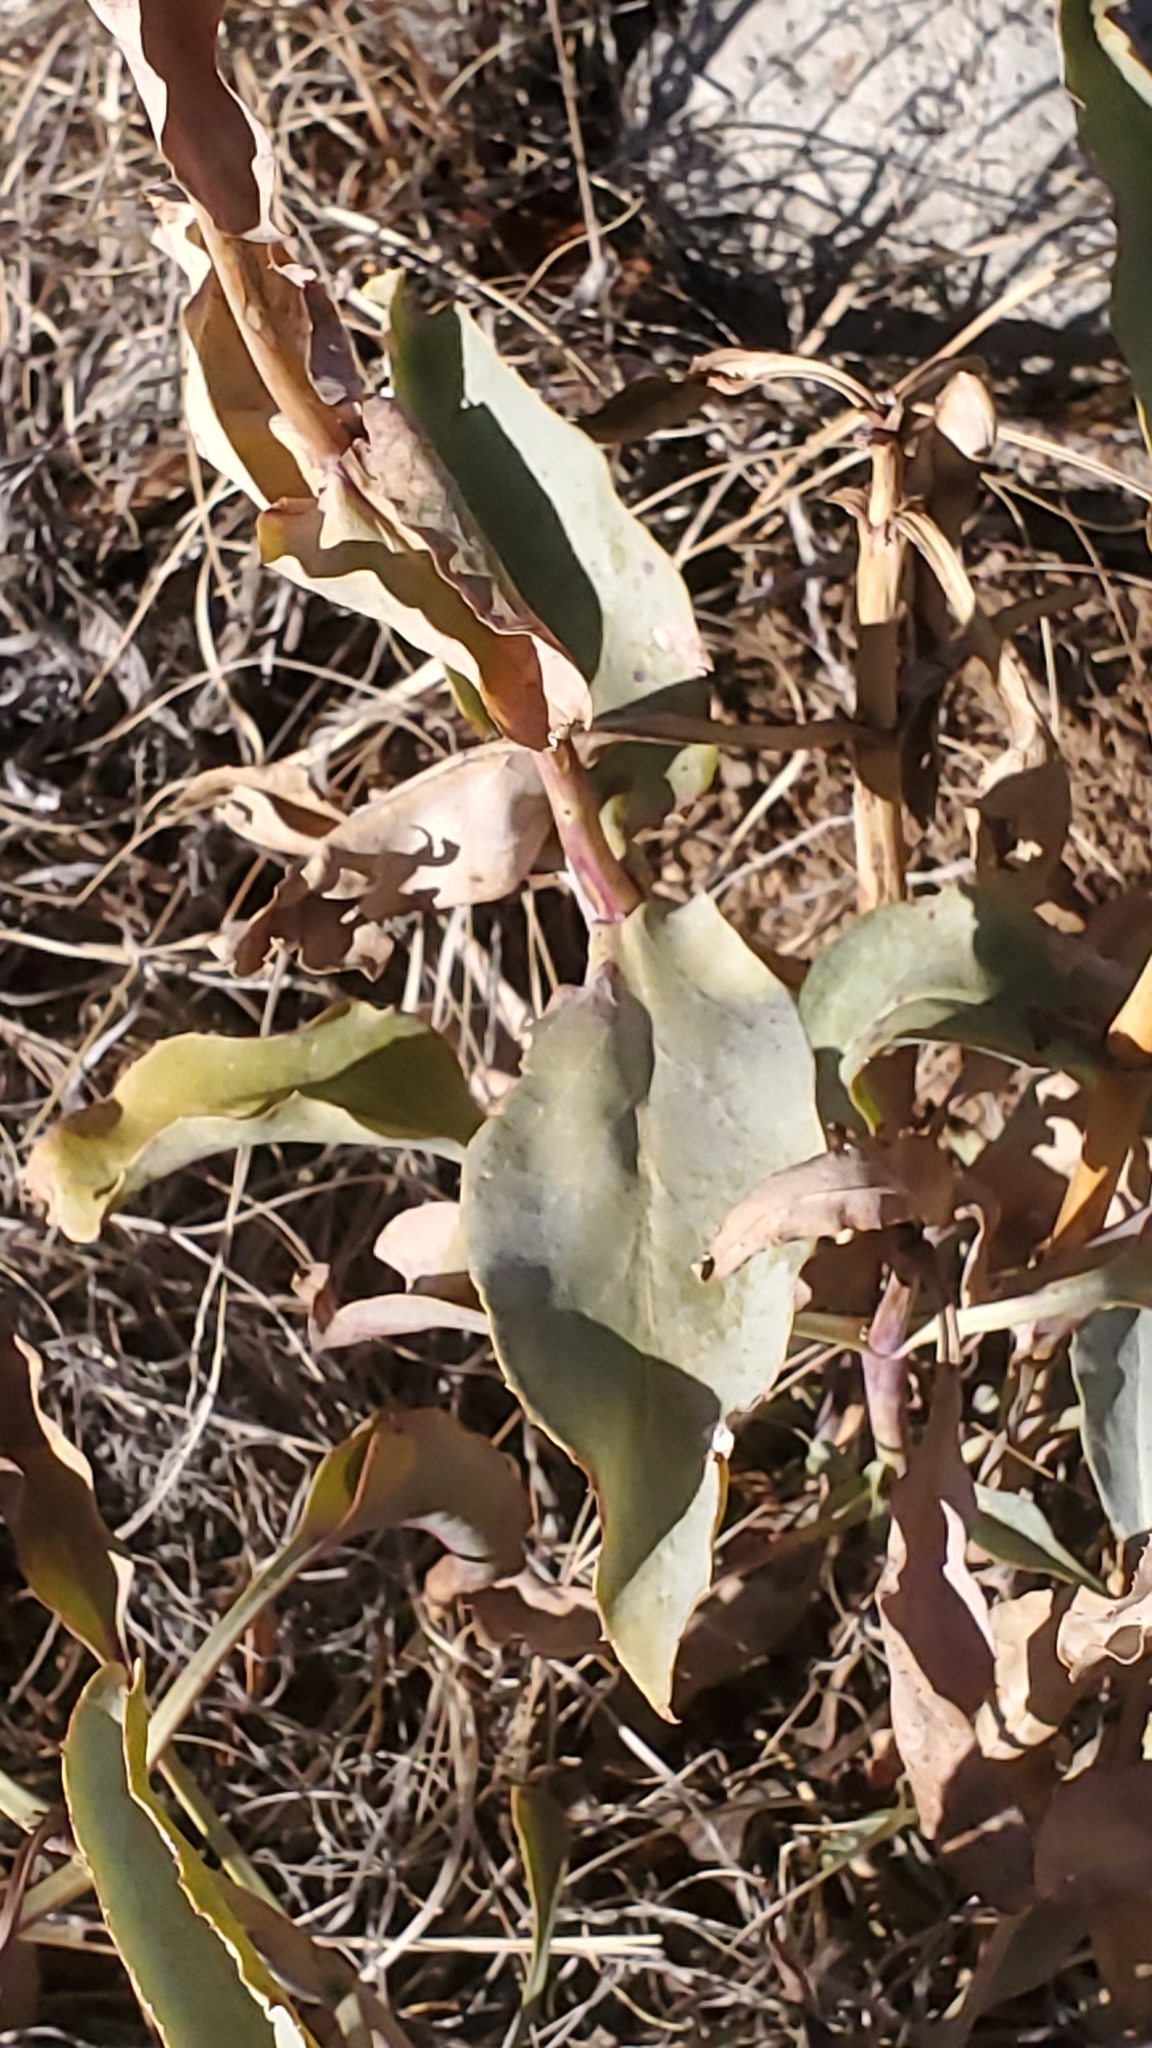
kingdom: Plantae
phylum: Tracheophyta
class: Magnoliopsida
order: Lamiales
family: Plantaginaceae
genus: Penstemon
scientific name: Penstemon palmeri
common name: Palmer penstemon
